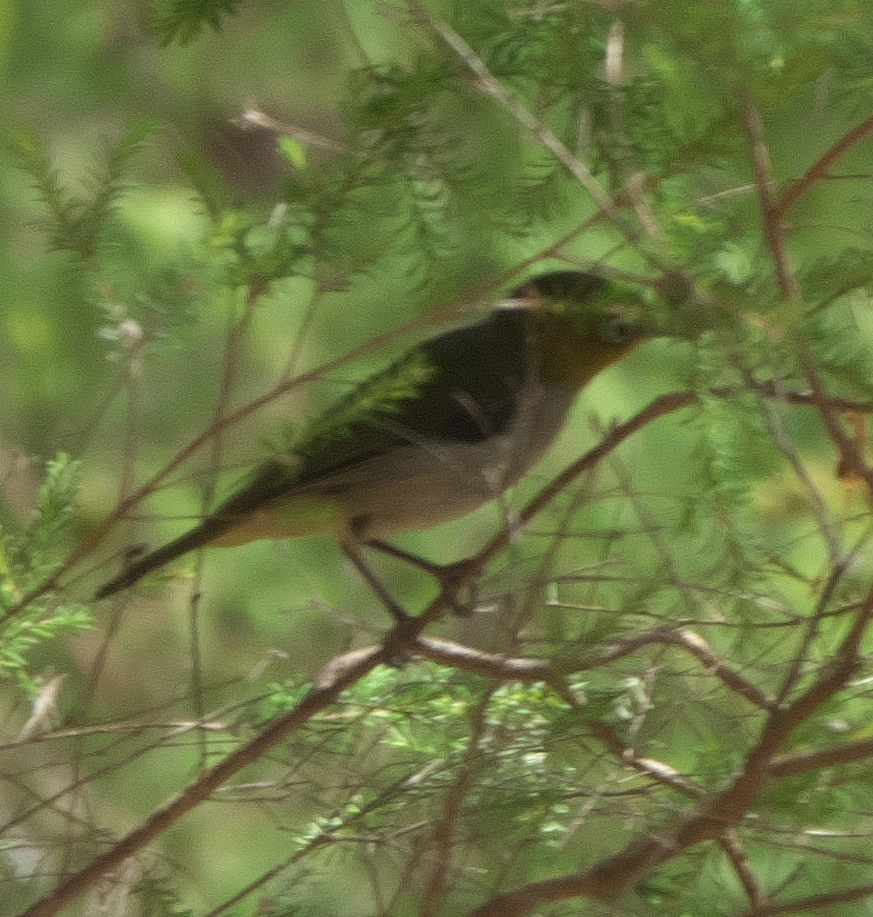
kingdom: Animalia
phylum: Chordata
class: Aves
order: Passeriformes
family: Zosteropidae
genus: Zosterops
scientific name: Zosterops lateralis
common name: Silvereye
